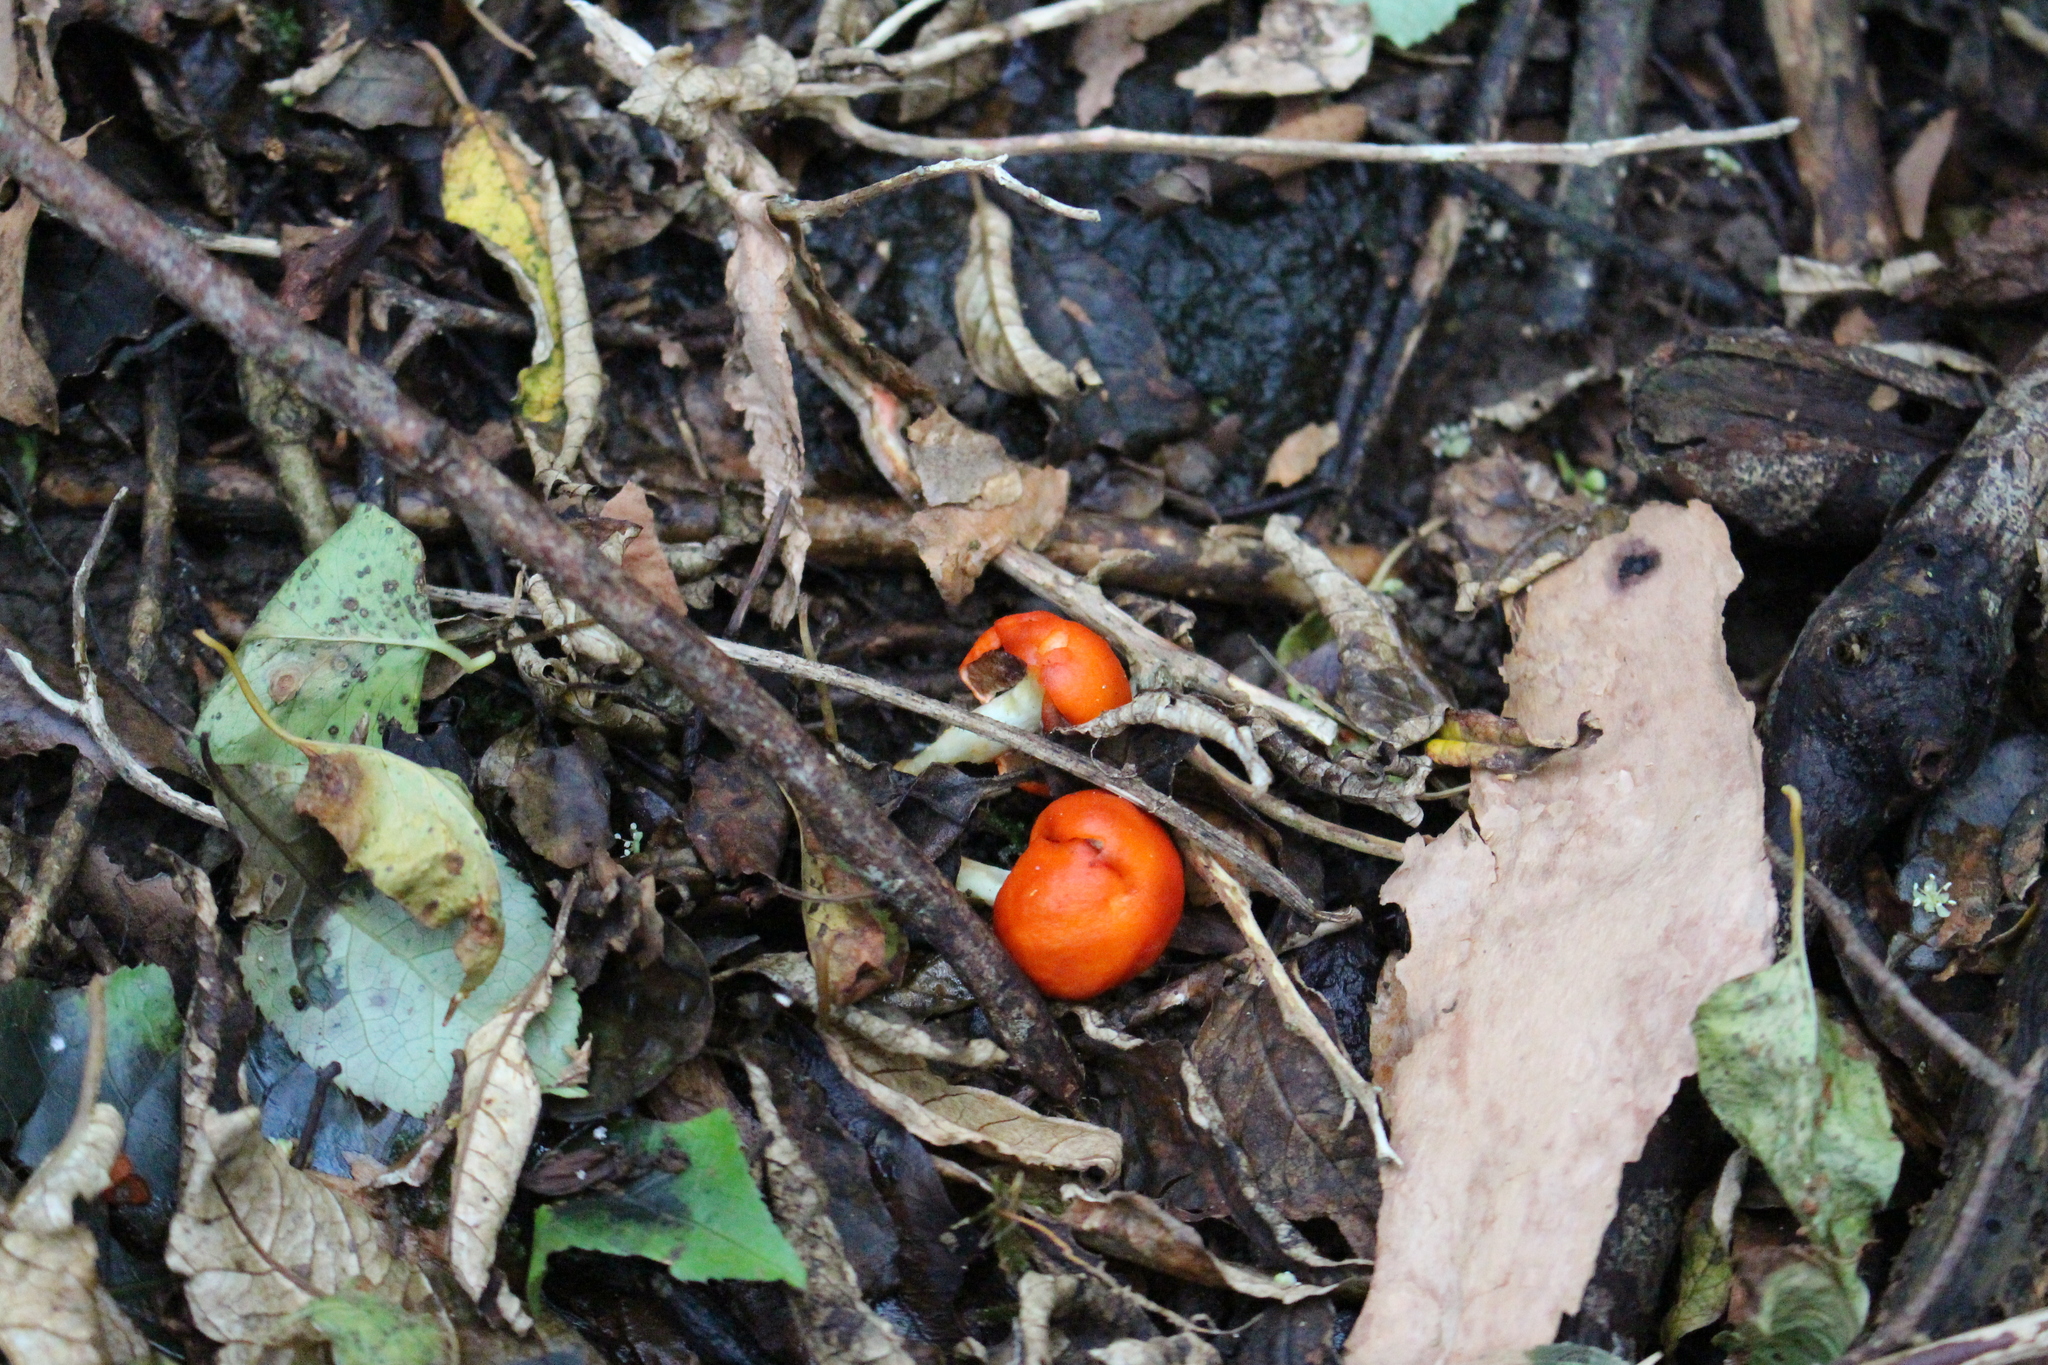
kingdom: Fungi
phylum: Basidiomycota
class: Agaricomycetes
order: Agaricales
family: Strophariaceae
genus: Leratiomyces
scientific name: Leratiomyces erythrocephalus
